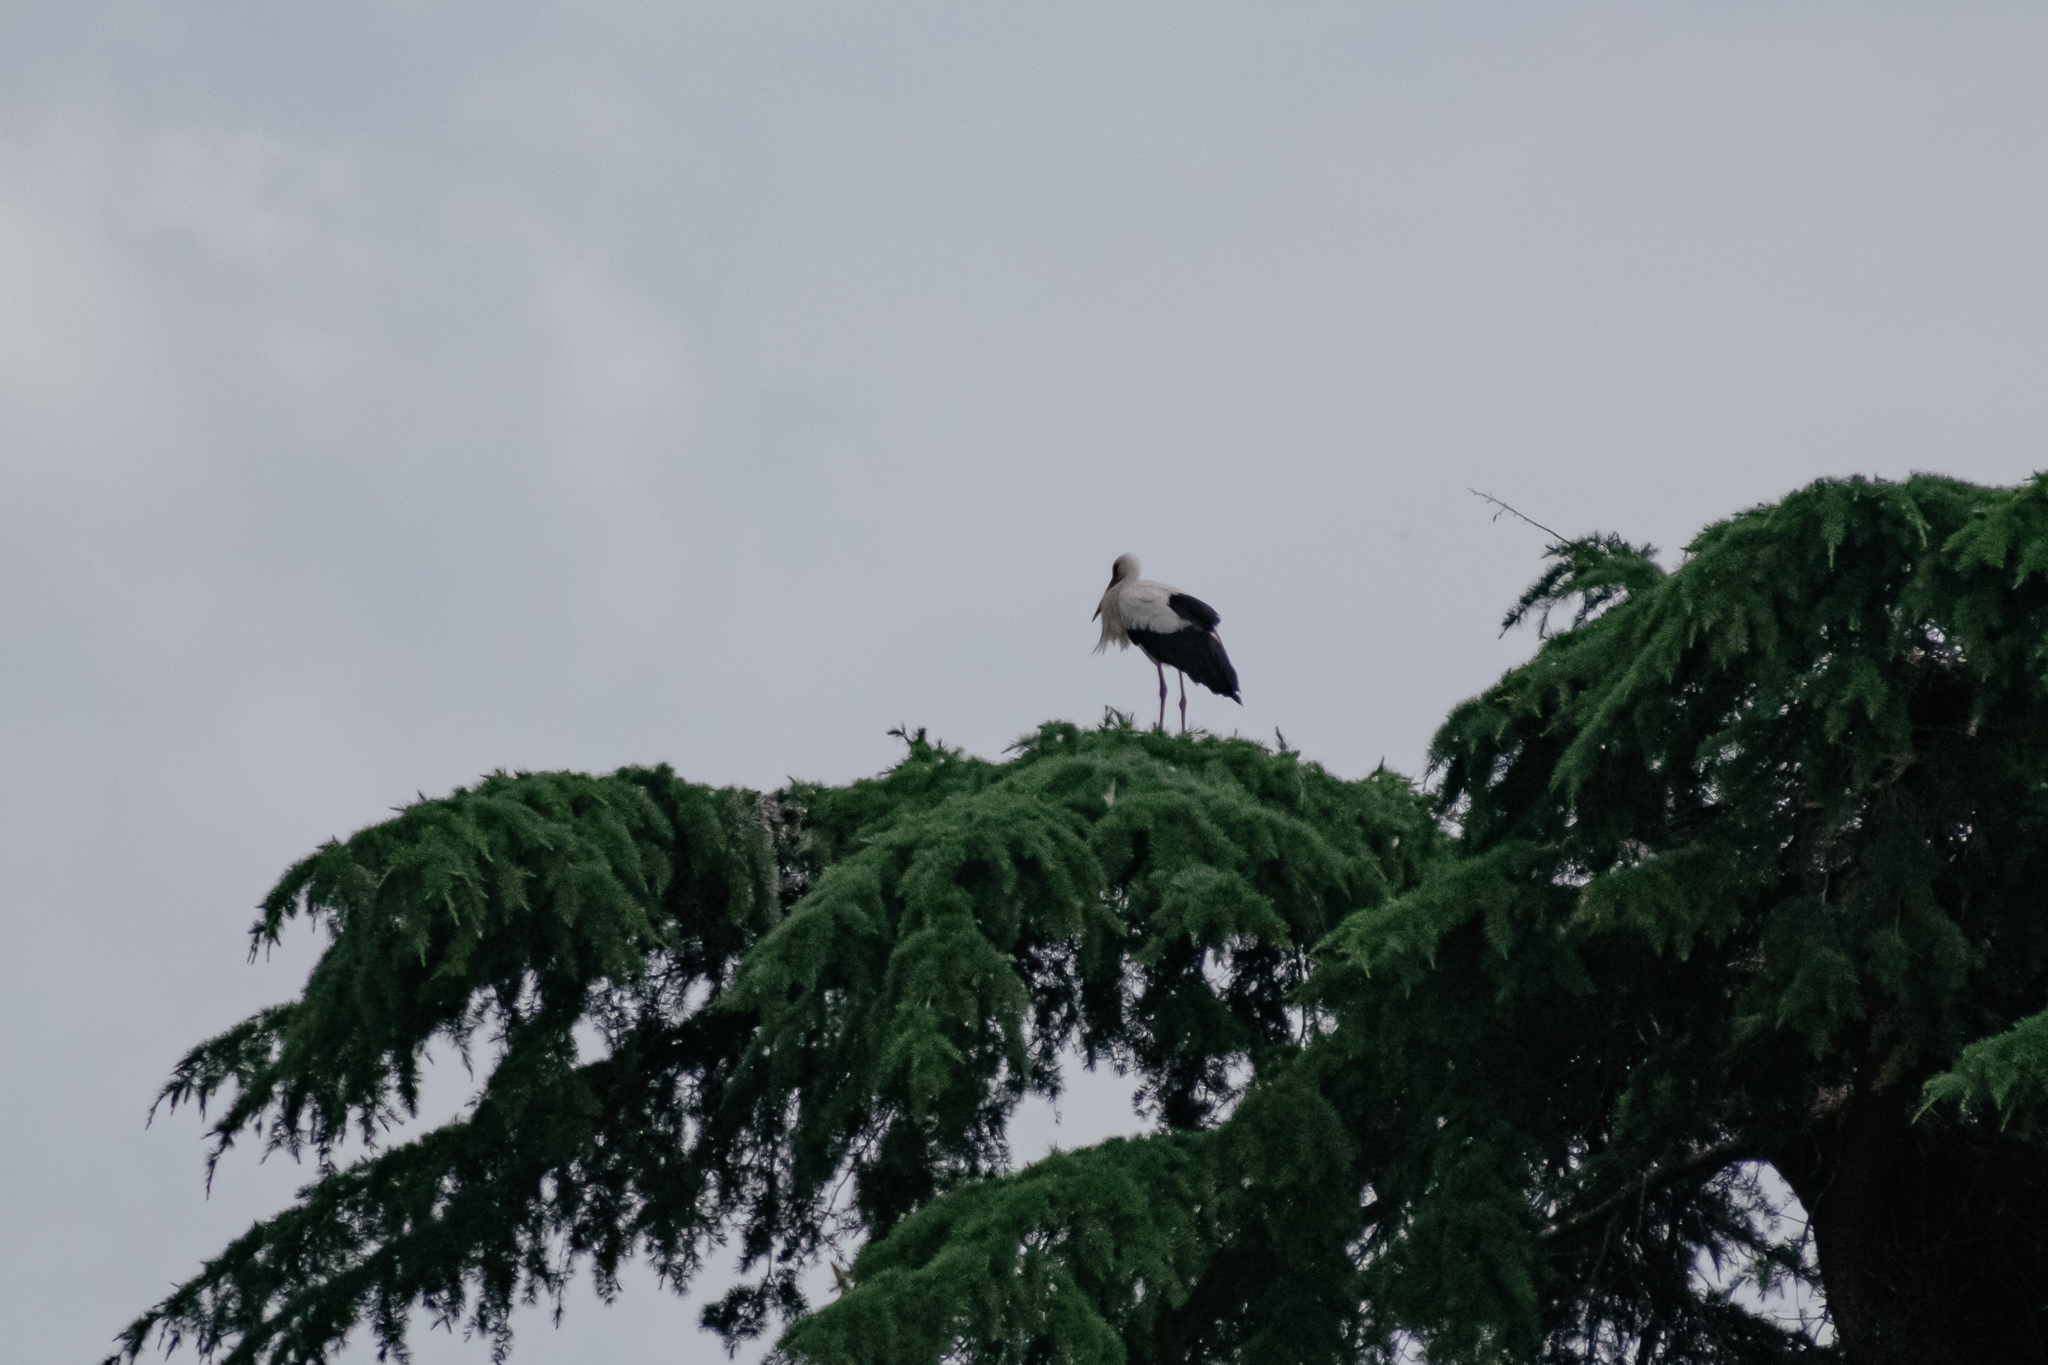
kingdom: Animalia
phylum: Chordata
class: Aves
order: Ciconiiformes
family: Ciconiidae
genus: Ciconia
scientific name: Ciconia ciconia
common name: White stork
